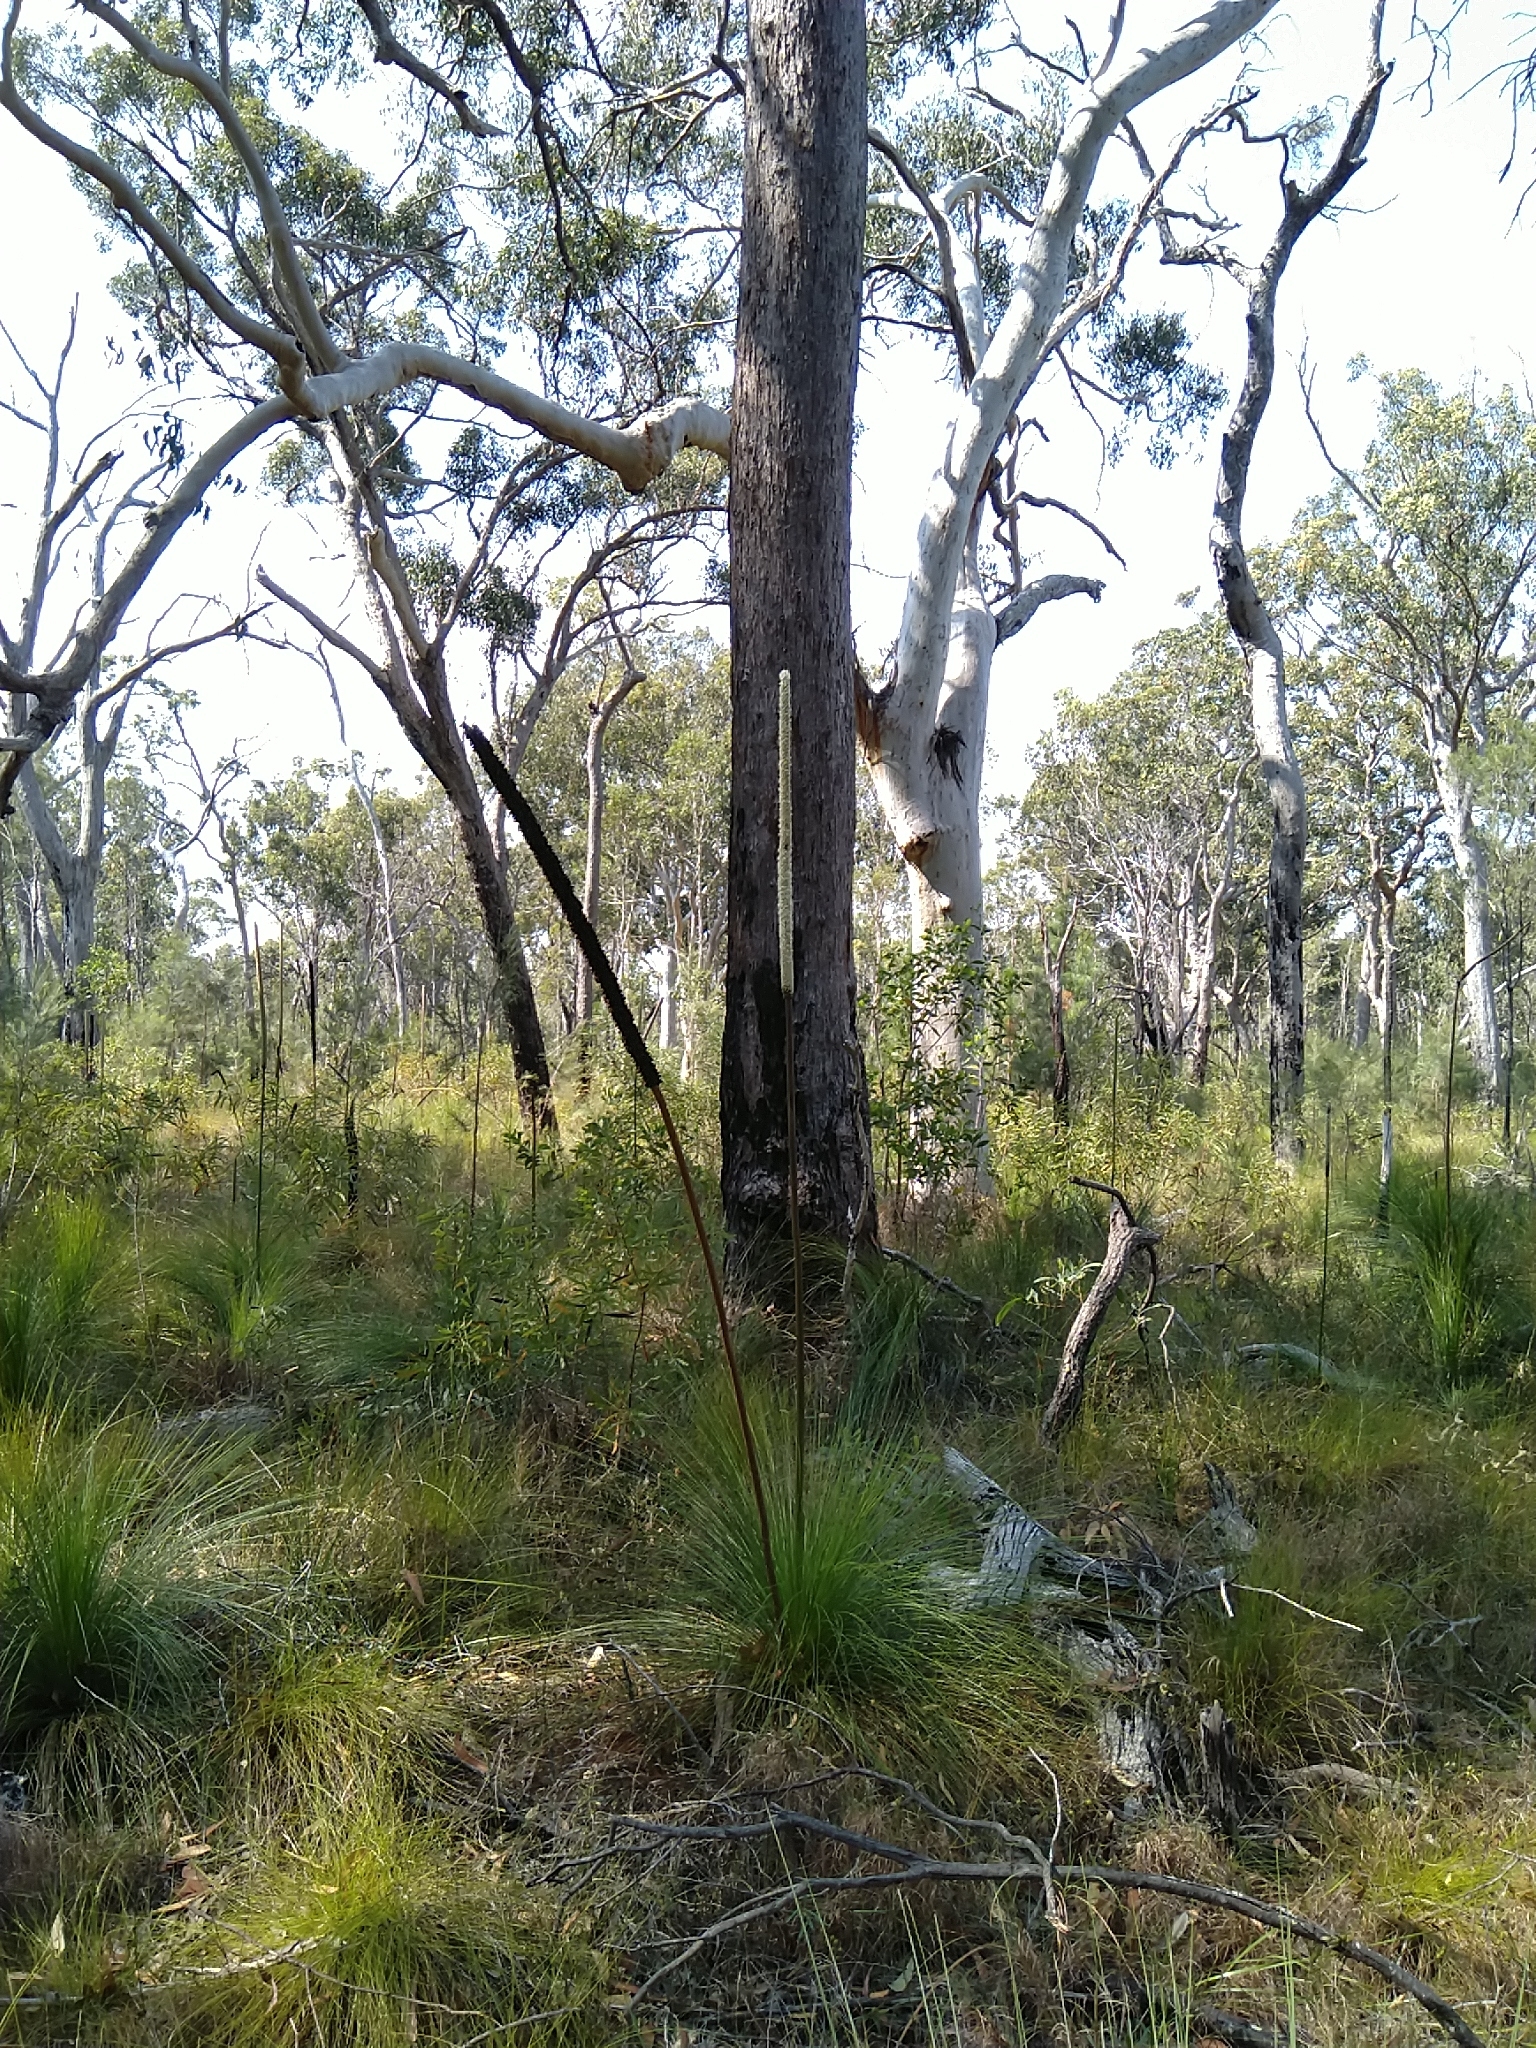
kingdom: Plantae
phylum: Tracheophyta
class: Liliopsida
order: Asparagales
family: Asphodelaceae
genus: Xanthorrhoea
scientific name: Xanthorrhoea johnsonii
